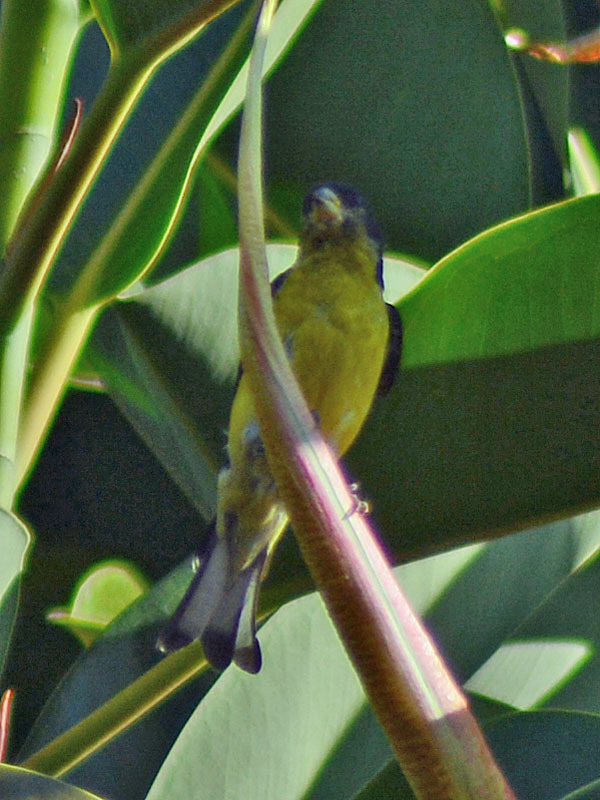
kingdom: Animalia
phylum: Chordata
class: Aves
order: Passeriformes
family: Fringillidae
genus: Spinus
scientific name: Spinus psaltria
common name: Lesser goldfinch
